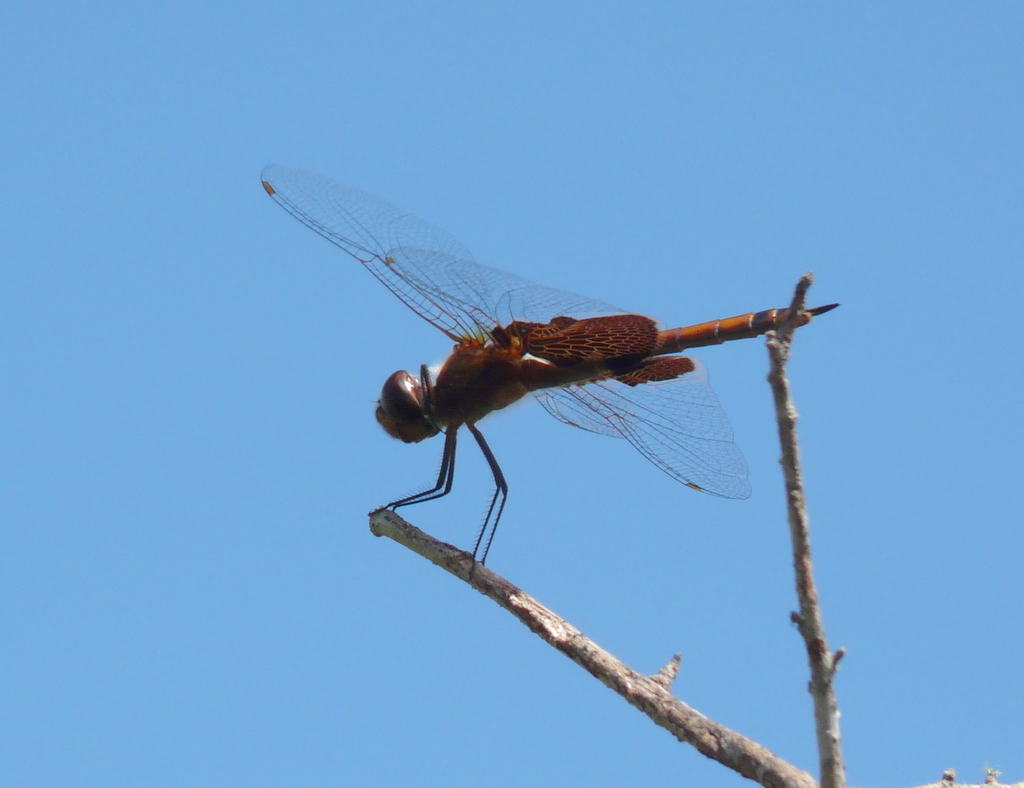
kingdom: Animalia
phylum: Arthropoda
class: Insecta
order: Odonata
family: Libellulidae
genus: Tramea
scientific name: Tramea carolina
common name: Carolina saddlebags
